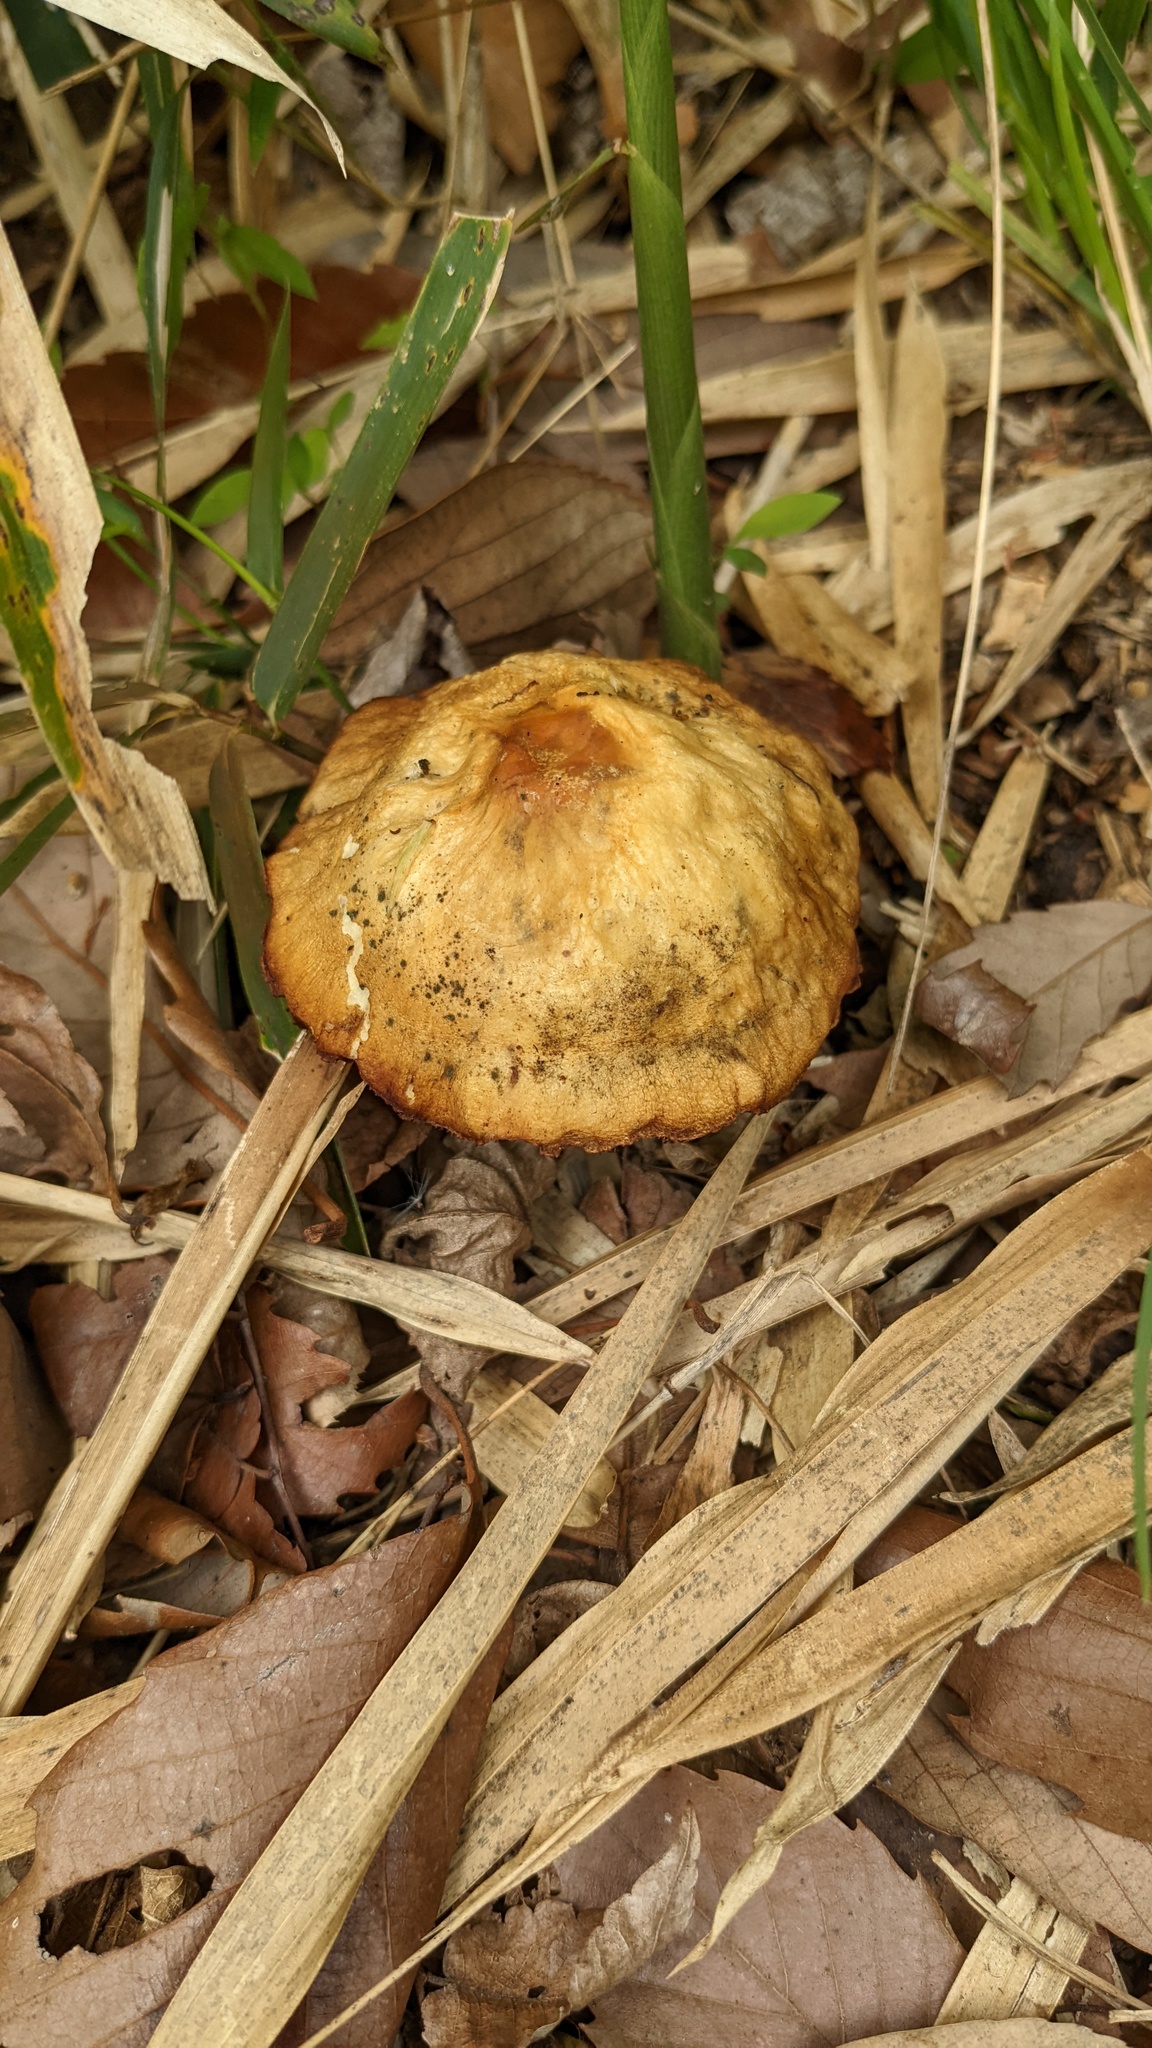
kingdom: Fungi
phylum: Basidiomycota
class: Agaricomycetes
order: Agaricales
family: Strophariaceae
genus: Agrocybe
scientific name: Agrocybe farinacea
